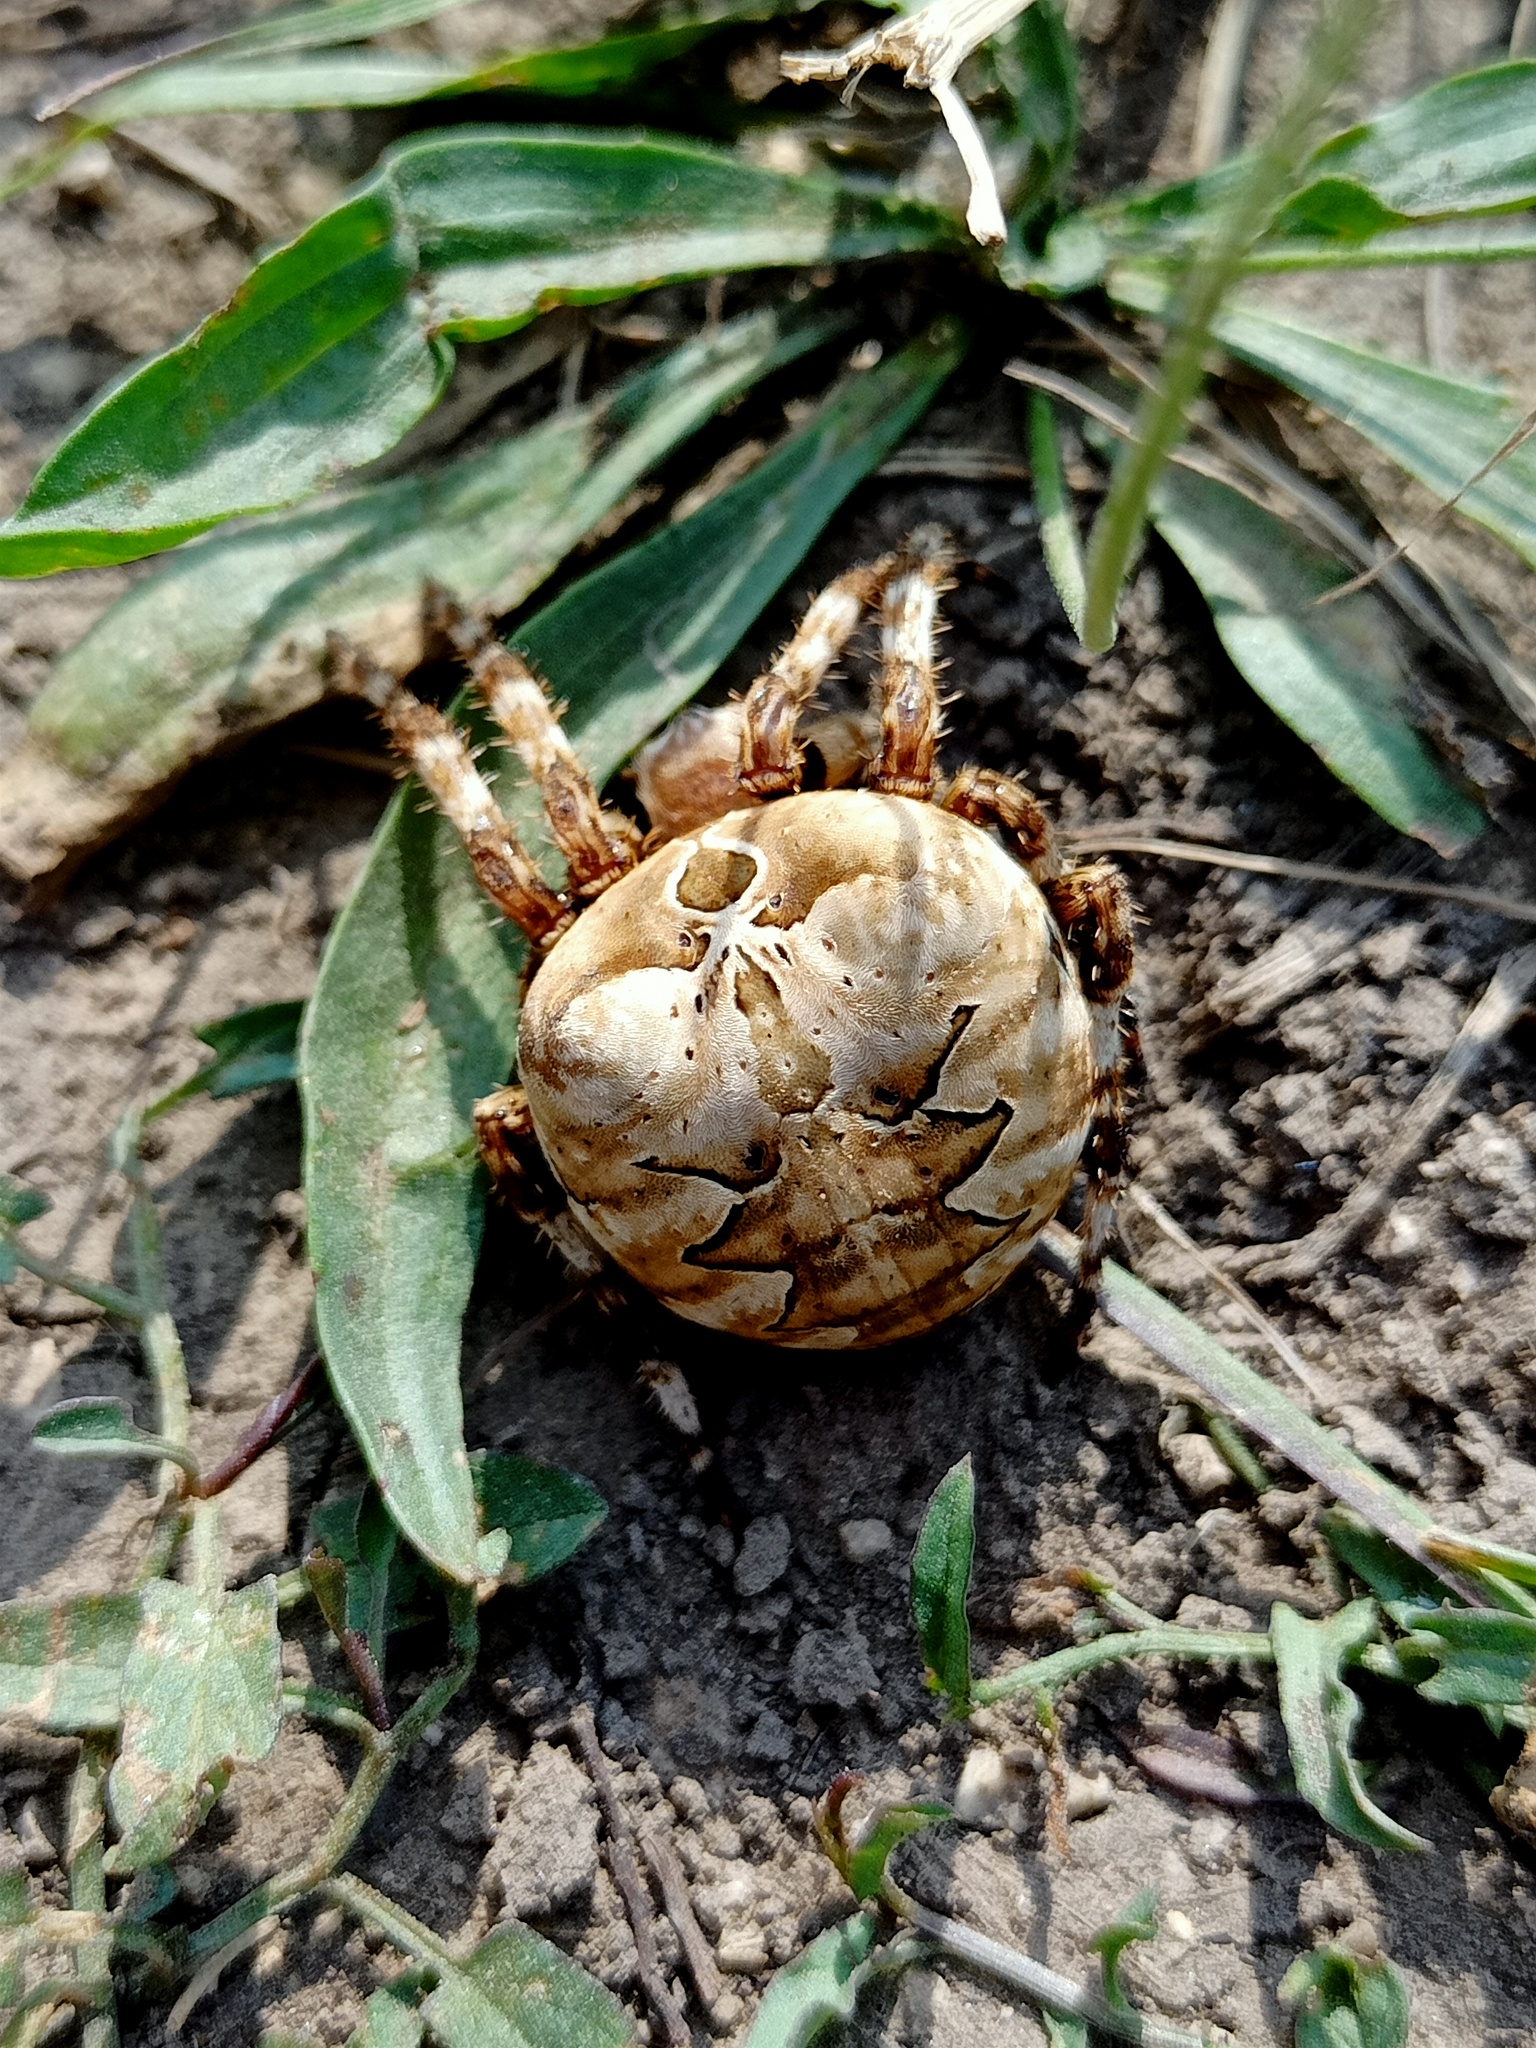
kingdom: Animalia
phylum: Arthropoda
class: Arachnida
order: Araneae
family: Araneidae
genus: Araneus
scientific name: Araneus grossus
